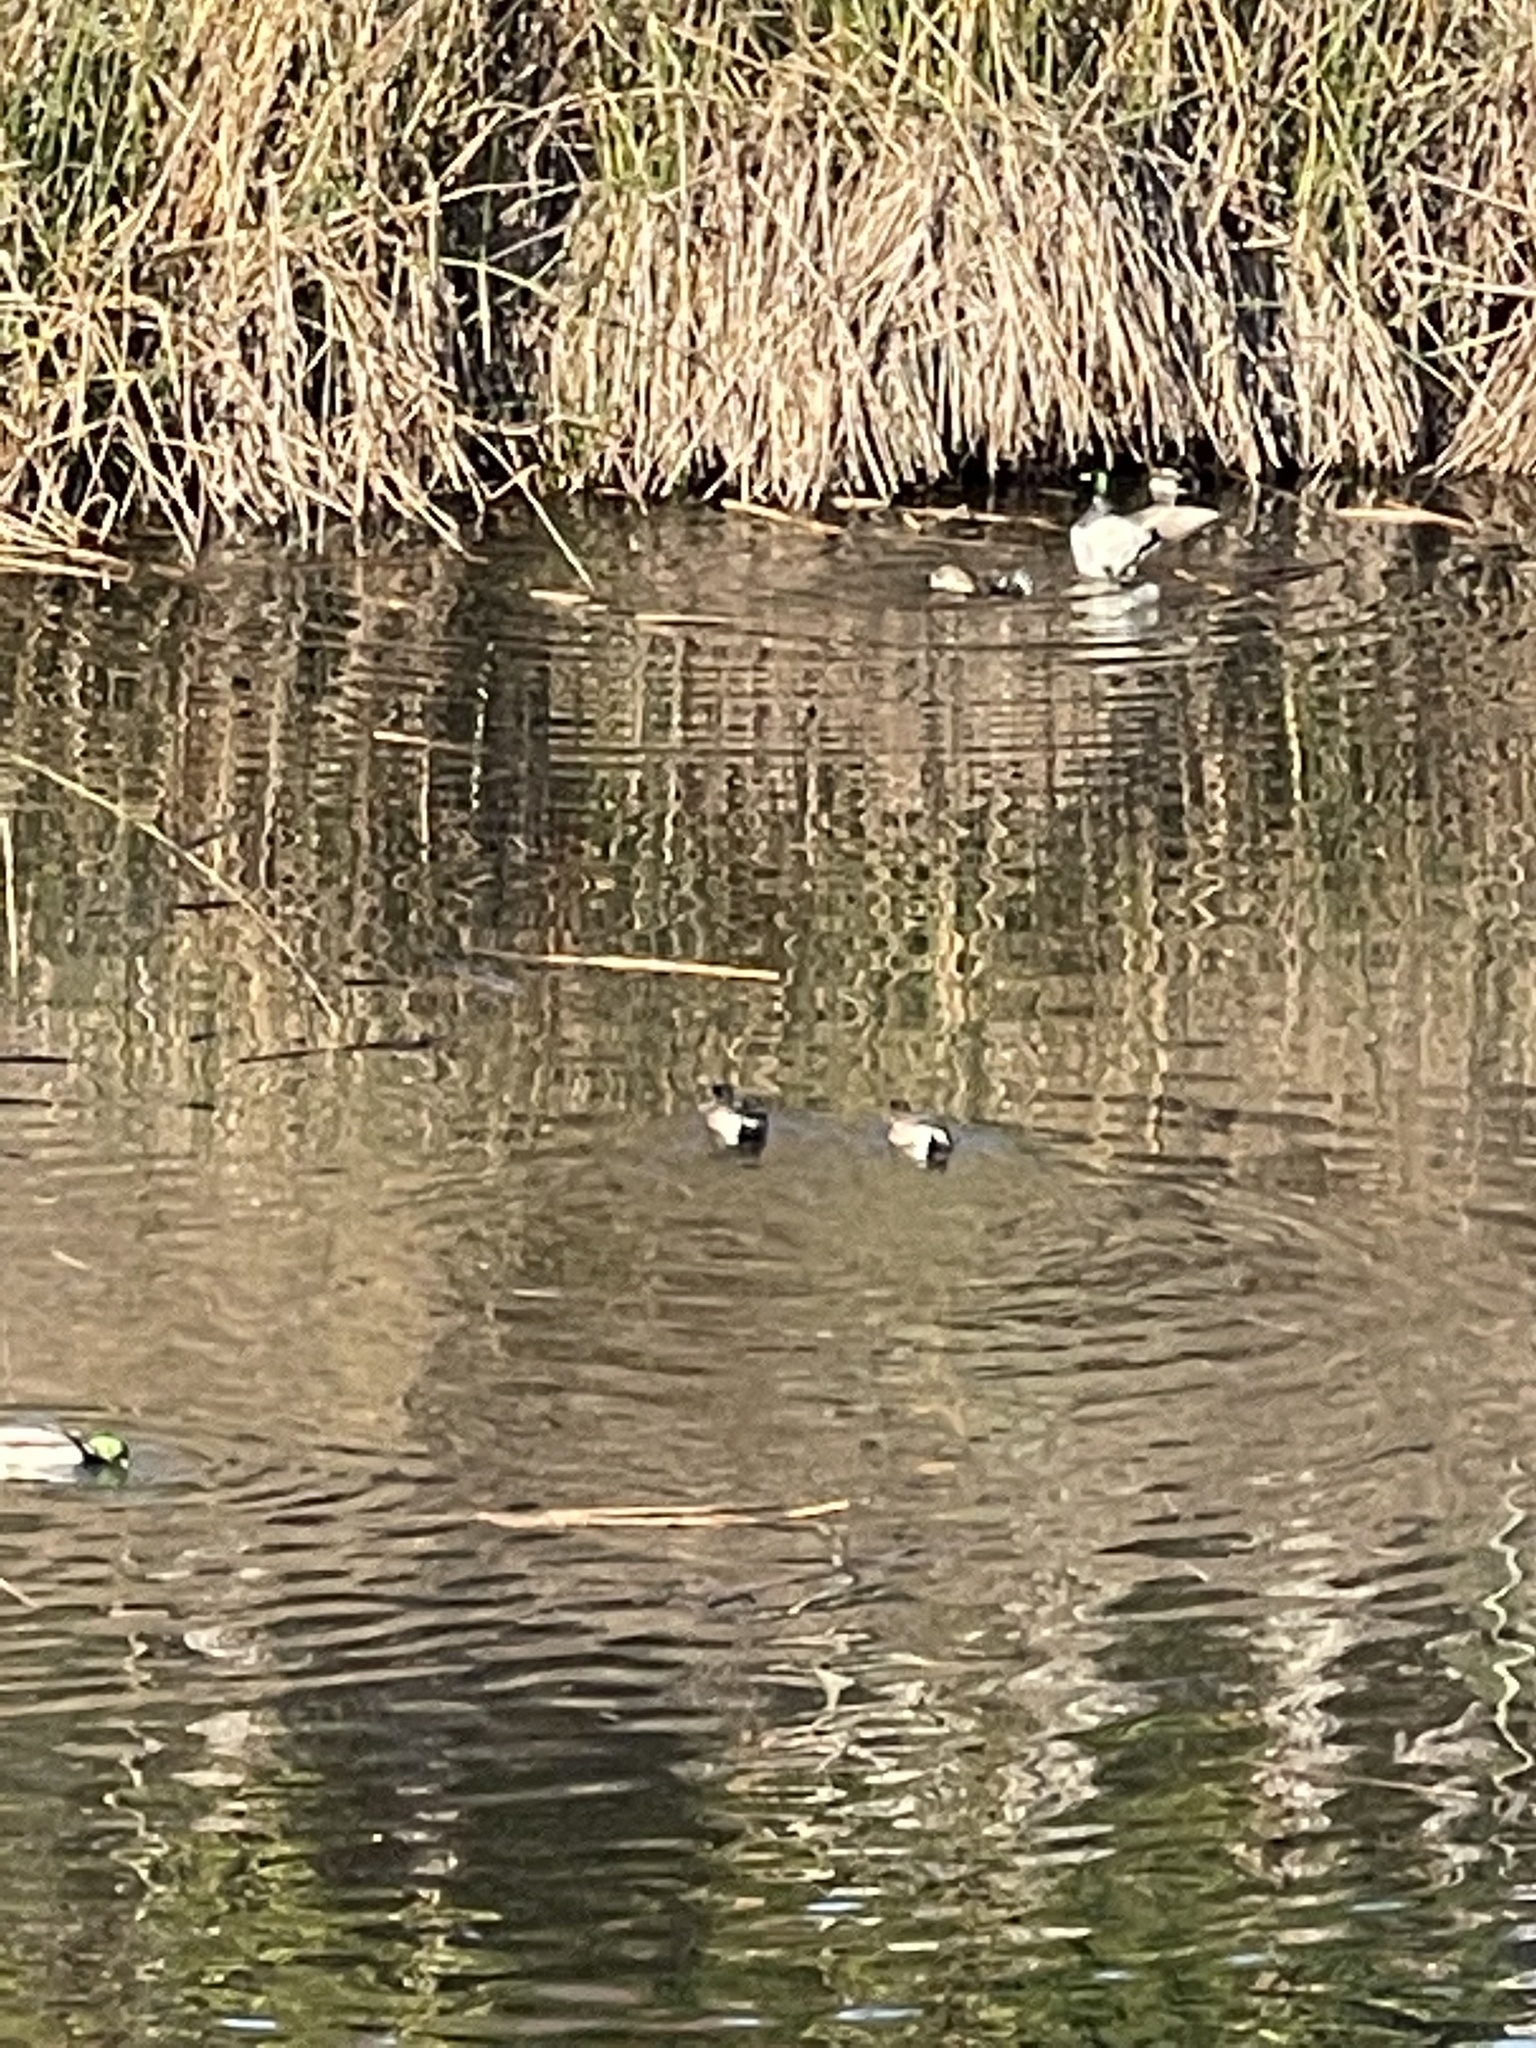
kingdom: Animalia
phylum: Chordata
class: Aves
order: Anseriformes
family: Anatidae
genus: Anas
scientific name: Anas platyrhynchos
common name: Mallard
